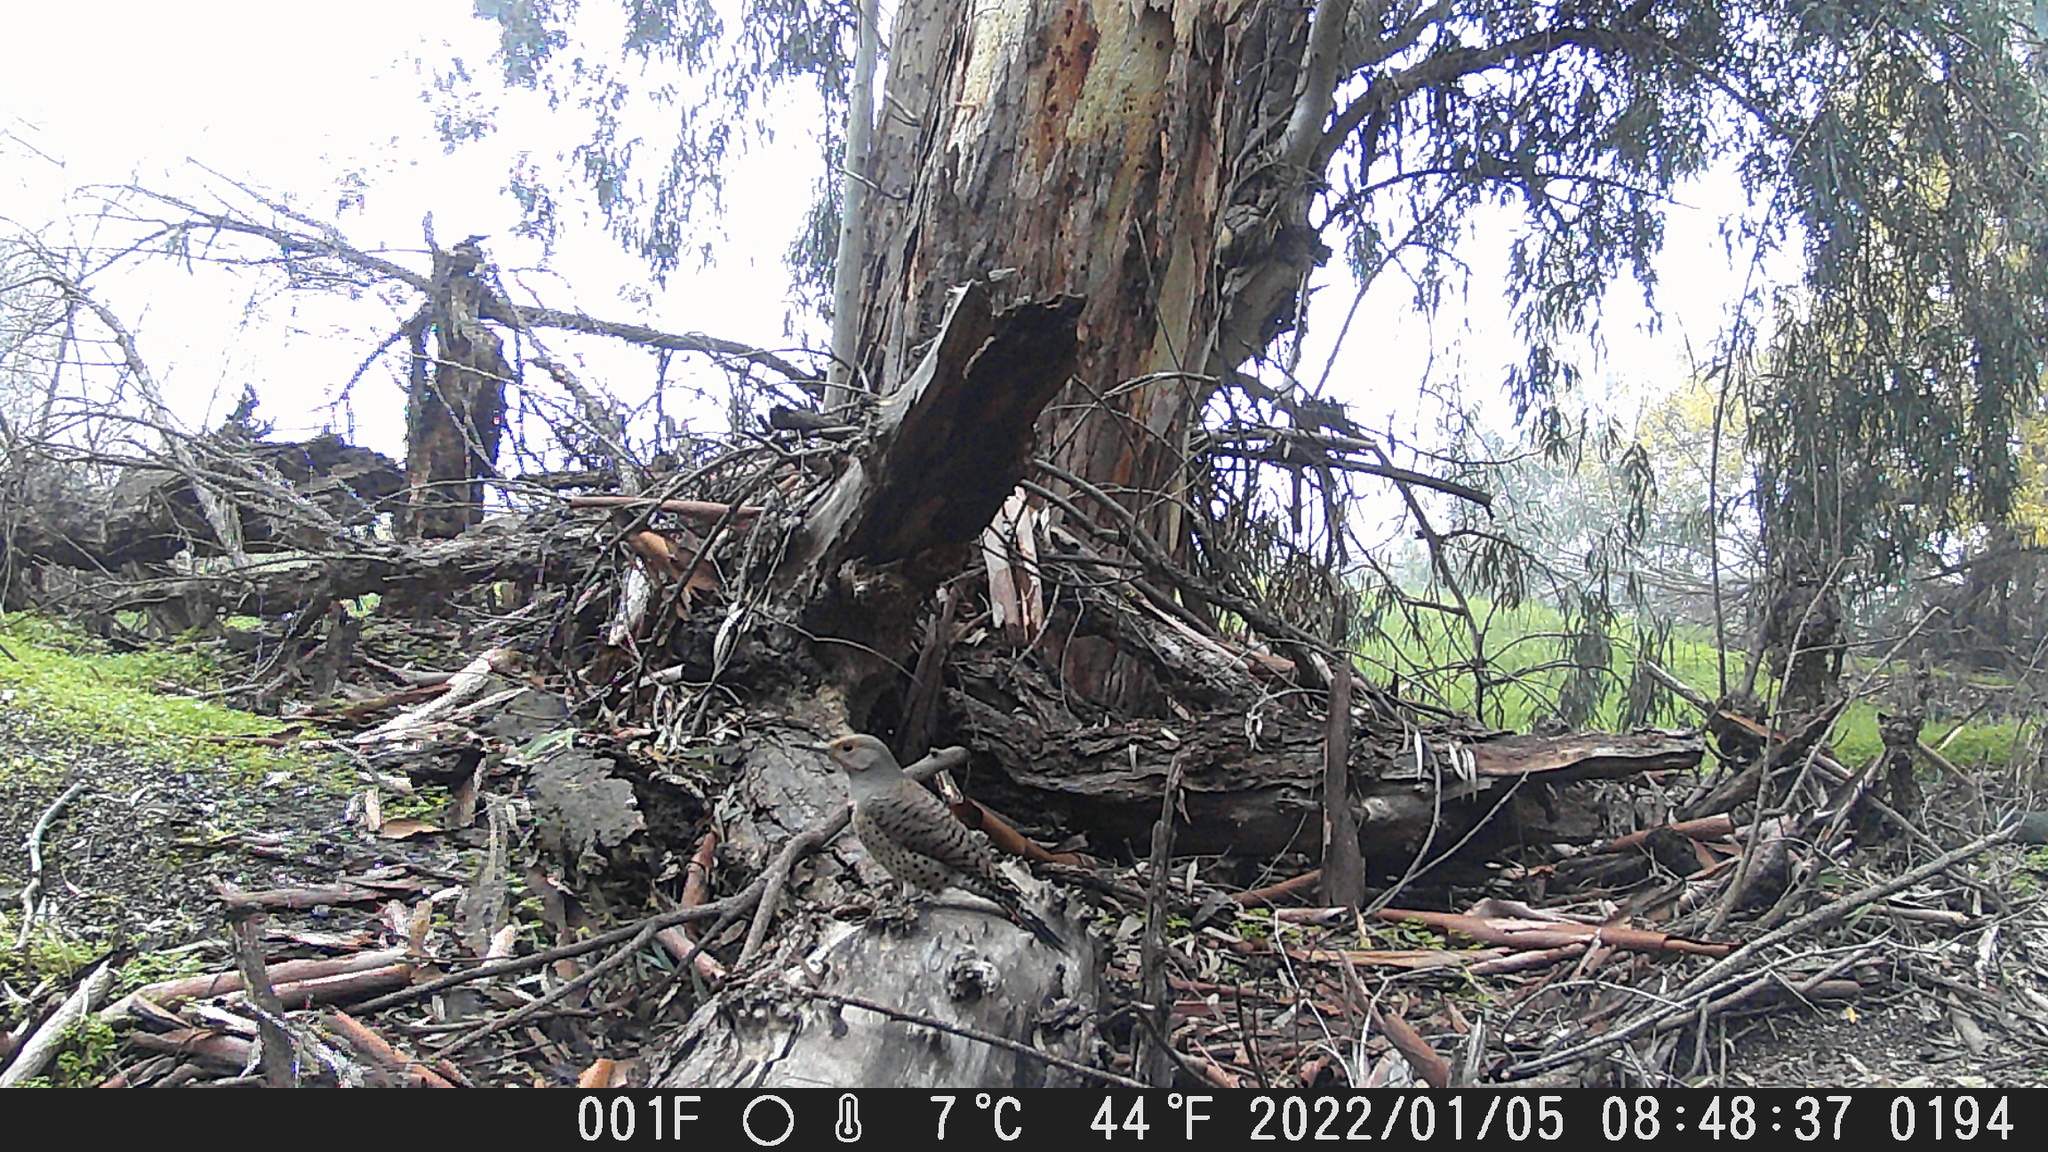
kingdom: Animalia
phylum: Chordata
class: Aves
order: Piciformes
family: Picidae
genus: Colaptes
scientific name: Colaptes auratus
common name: Northern flicker
